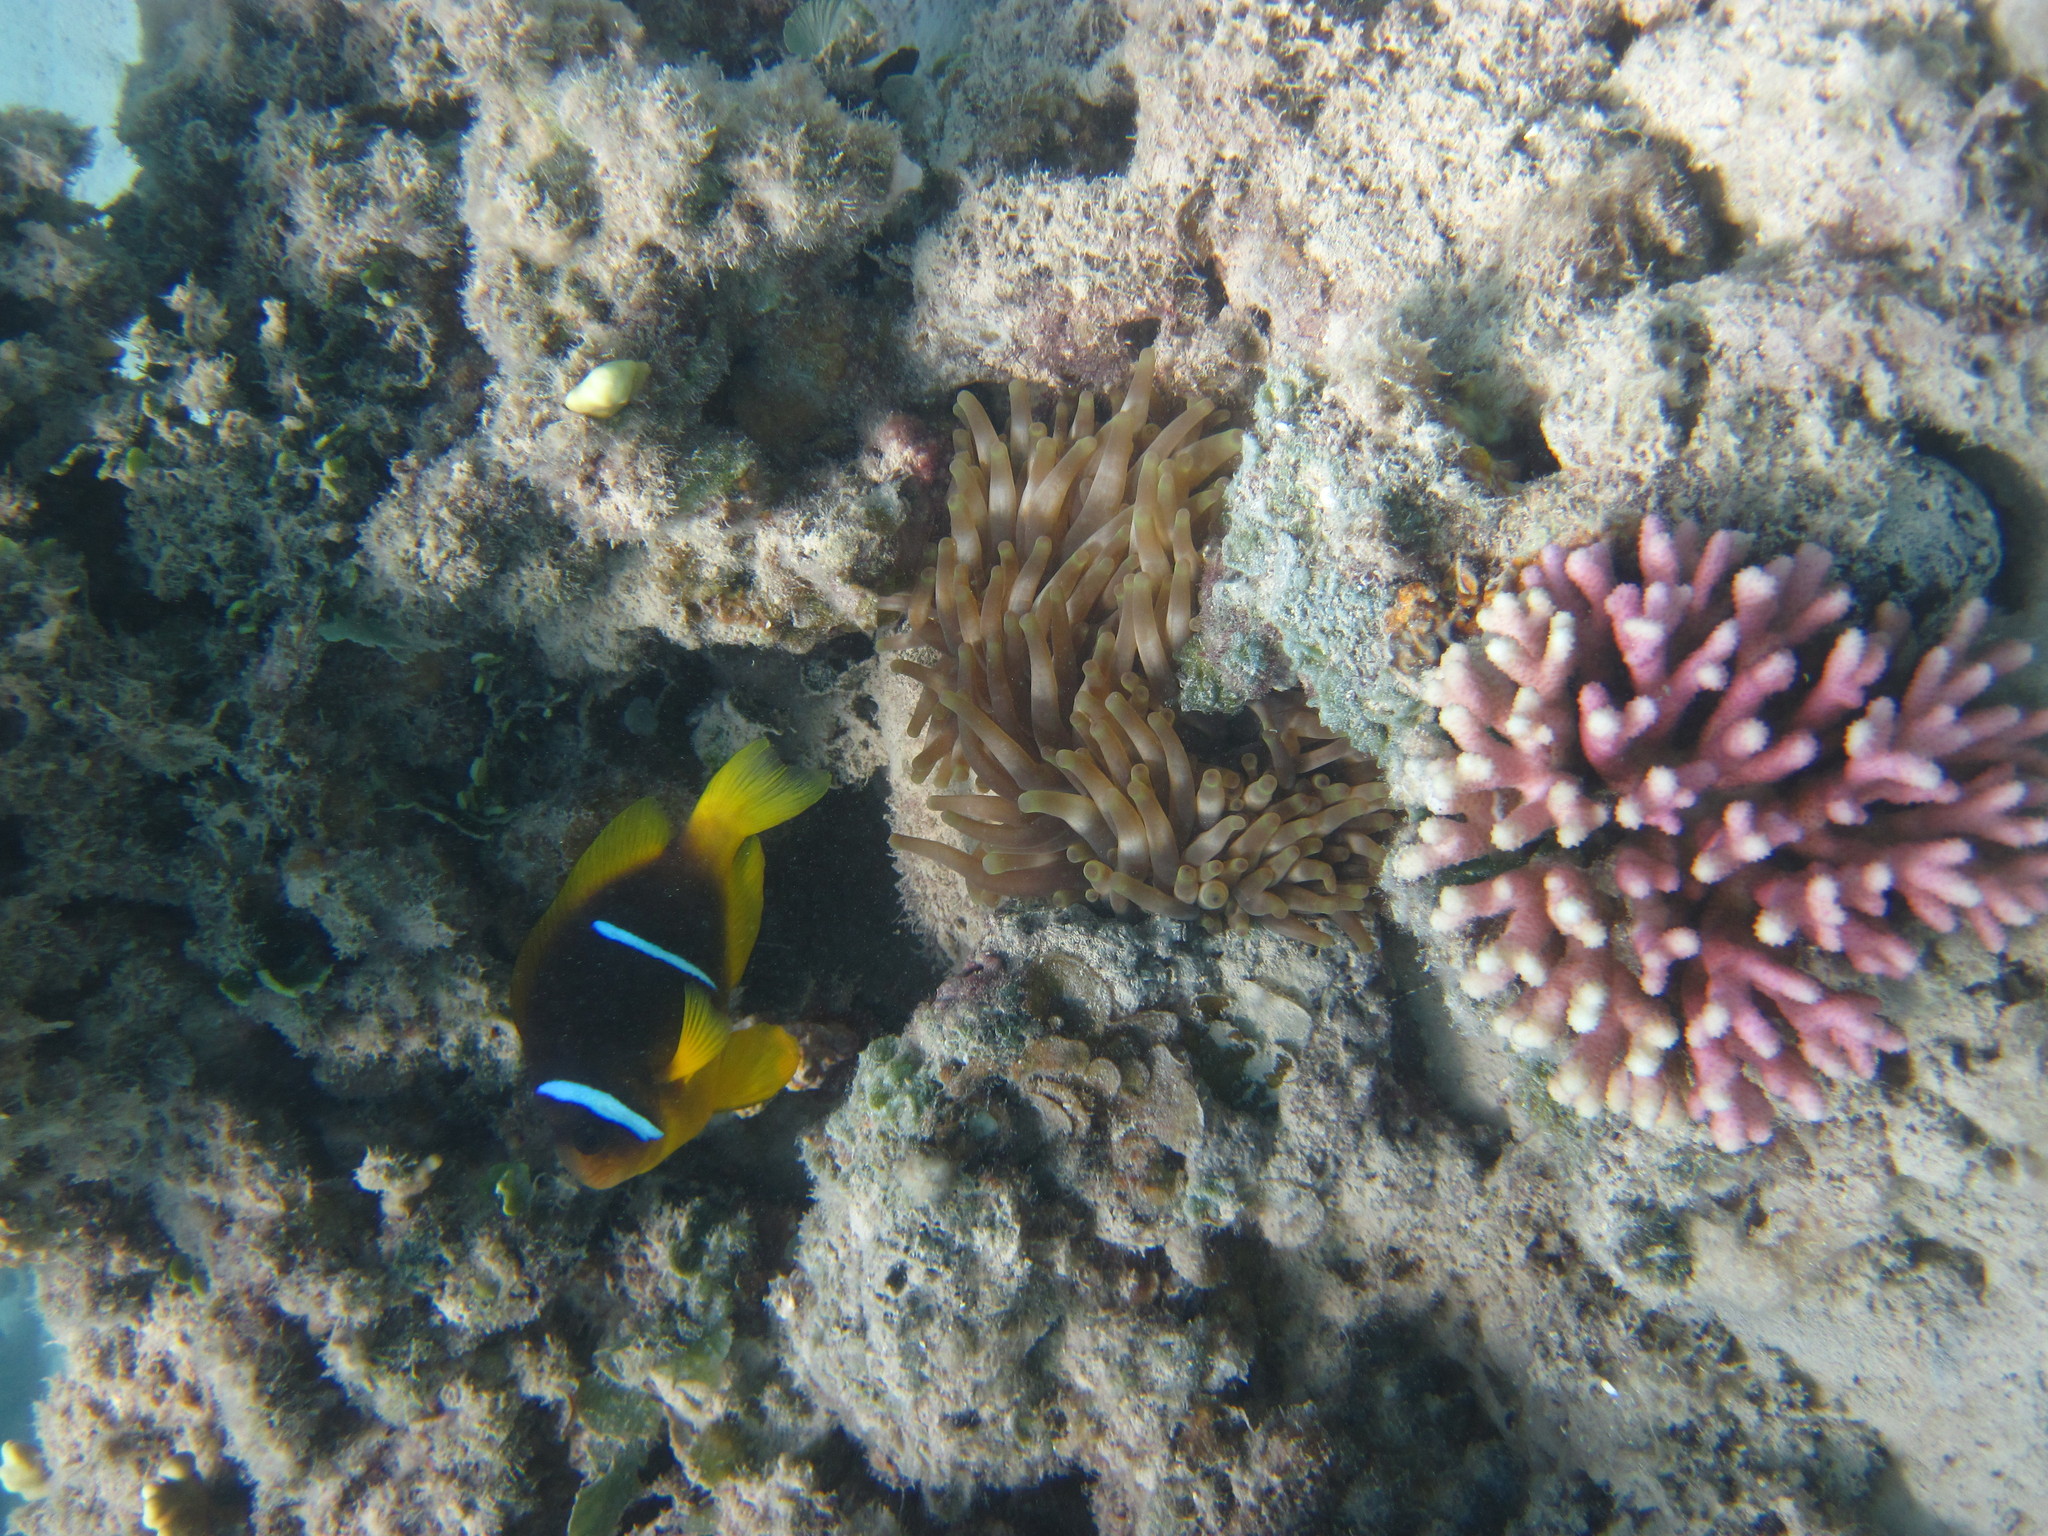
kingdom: Animalia
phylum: Chordata
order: Perciformes
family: Pomacentridae
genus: Amphiprion
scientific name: Amphiprion bicinctus
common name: Two-banded anemonefish
